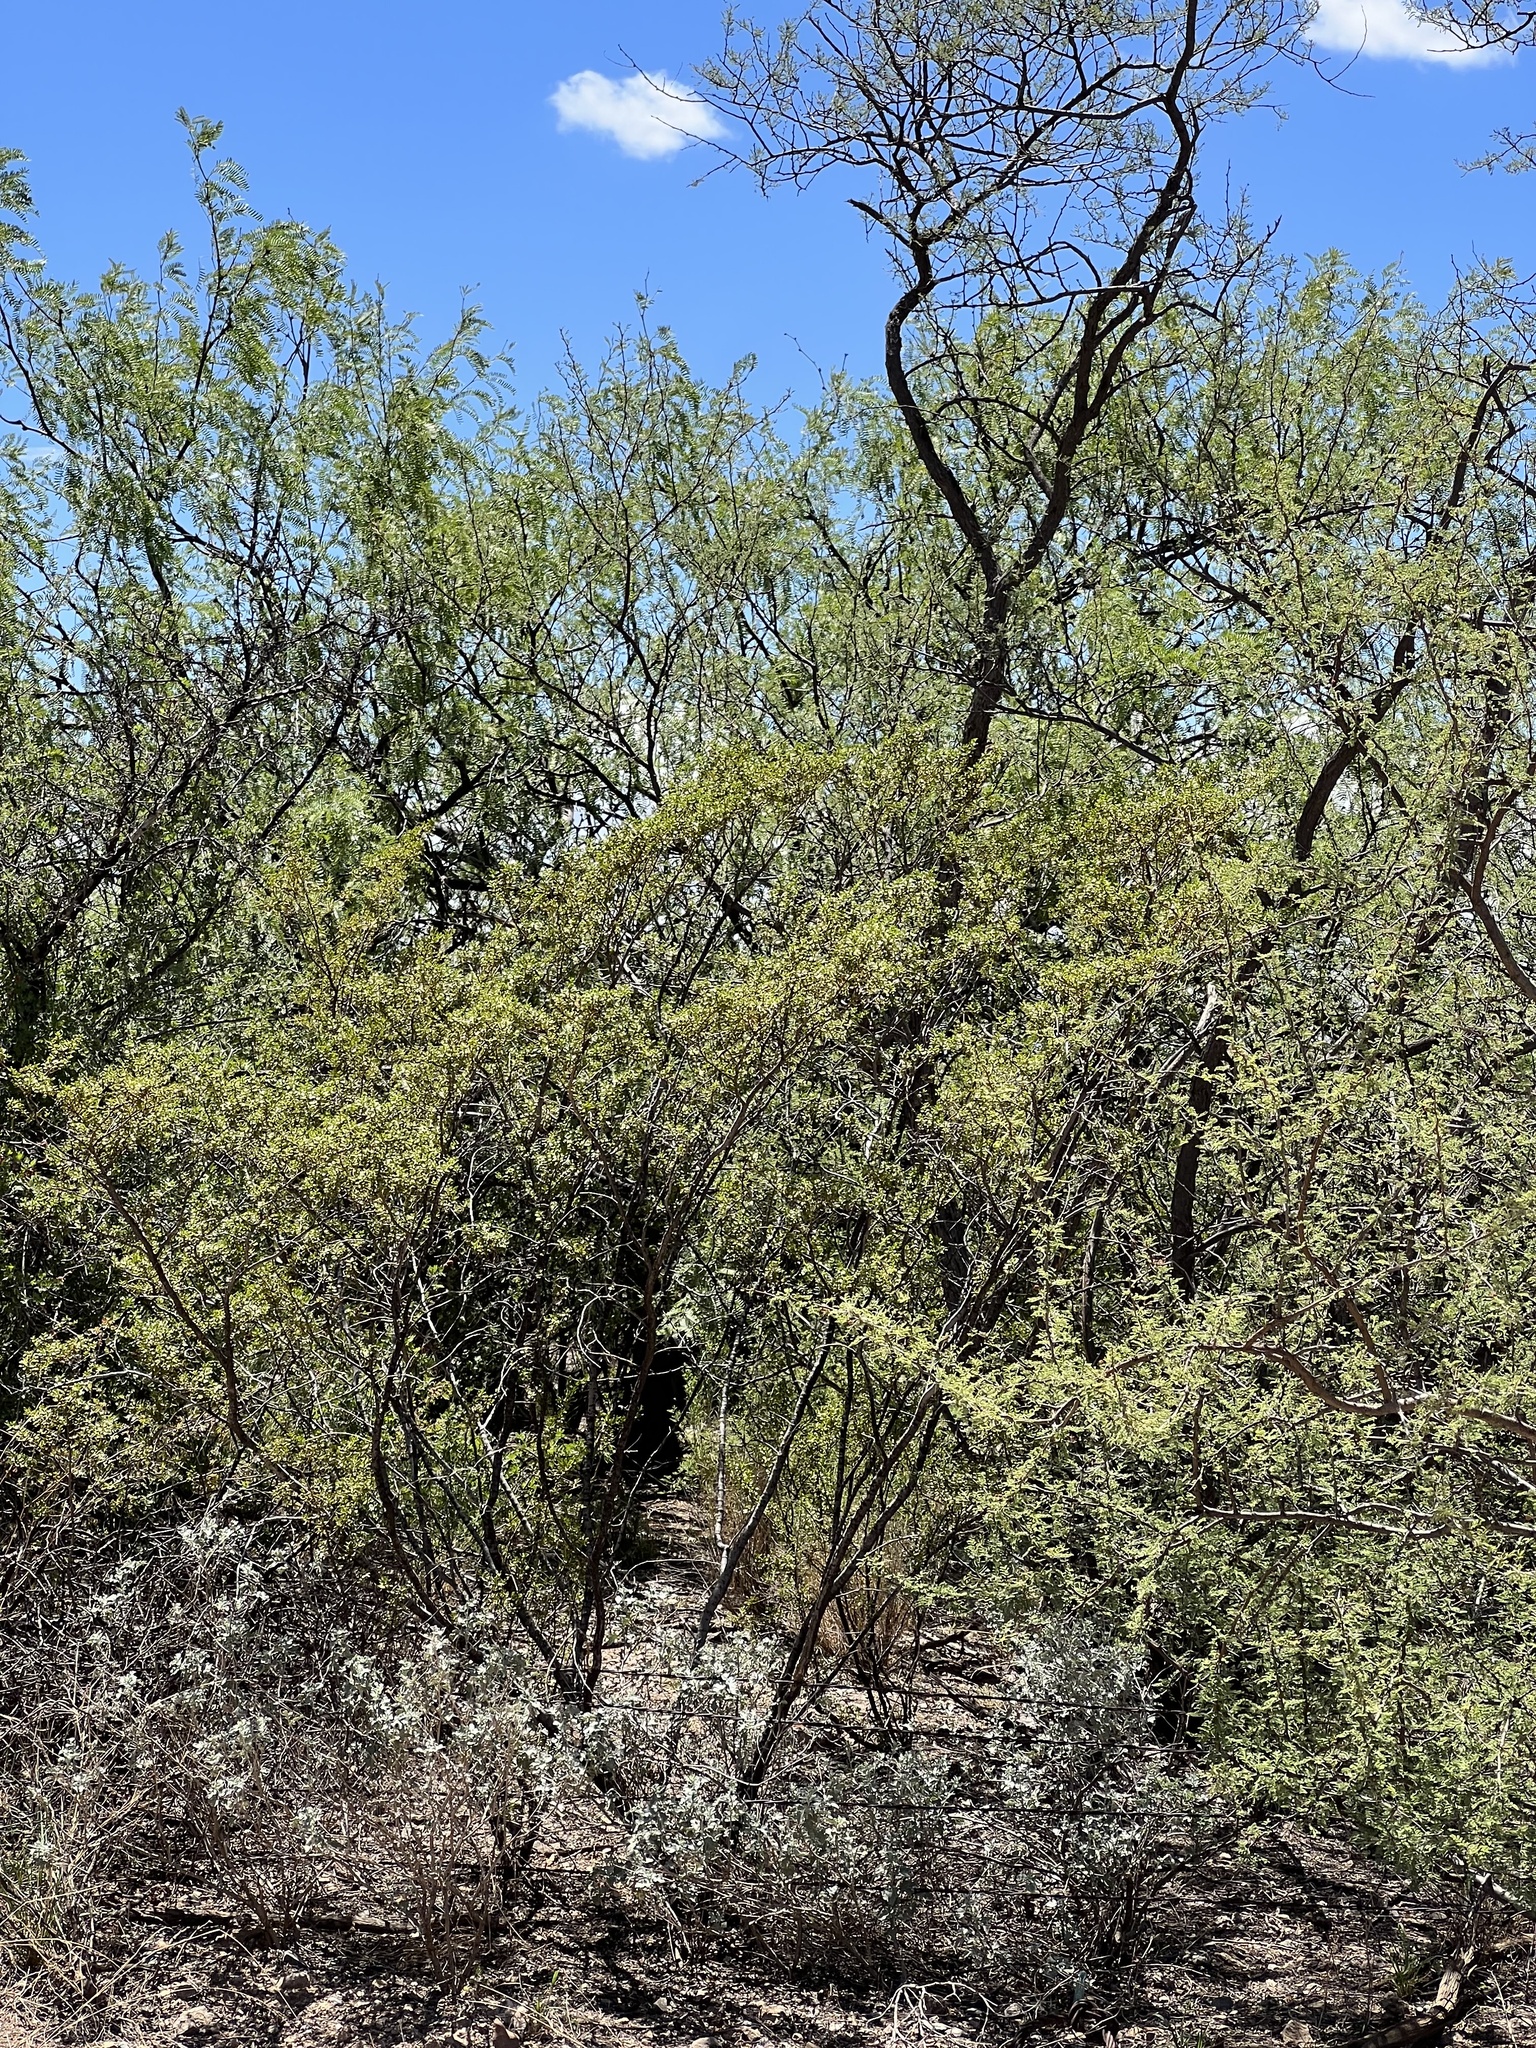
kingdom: Plantae
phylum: Tracheophyta
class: Magnoliopsida
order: Zygophyllales
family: Zygophyllaceae
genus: Larrea
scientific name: Larrea tridentata
